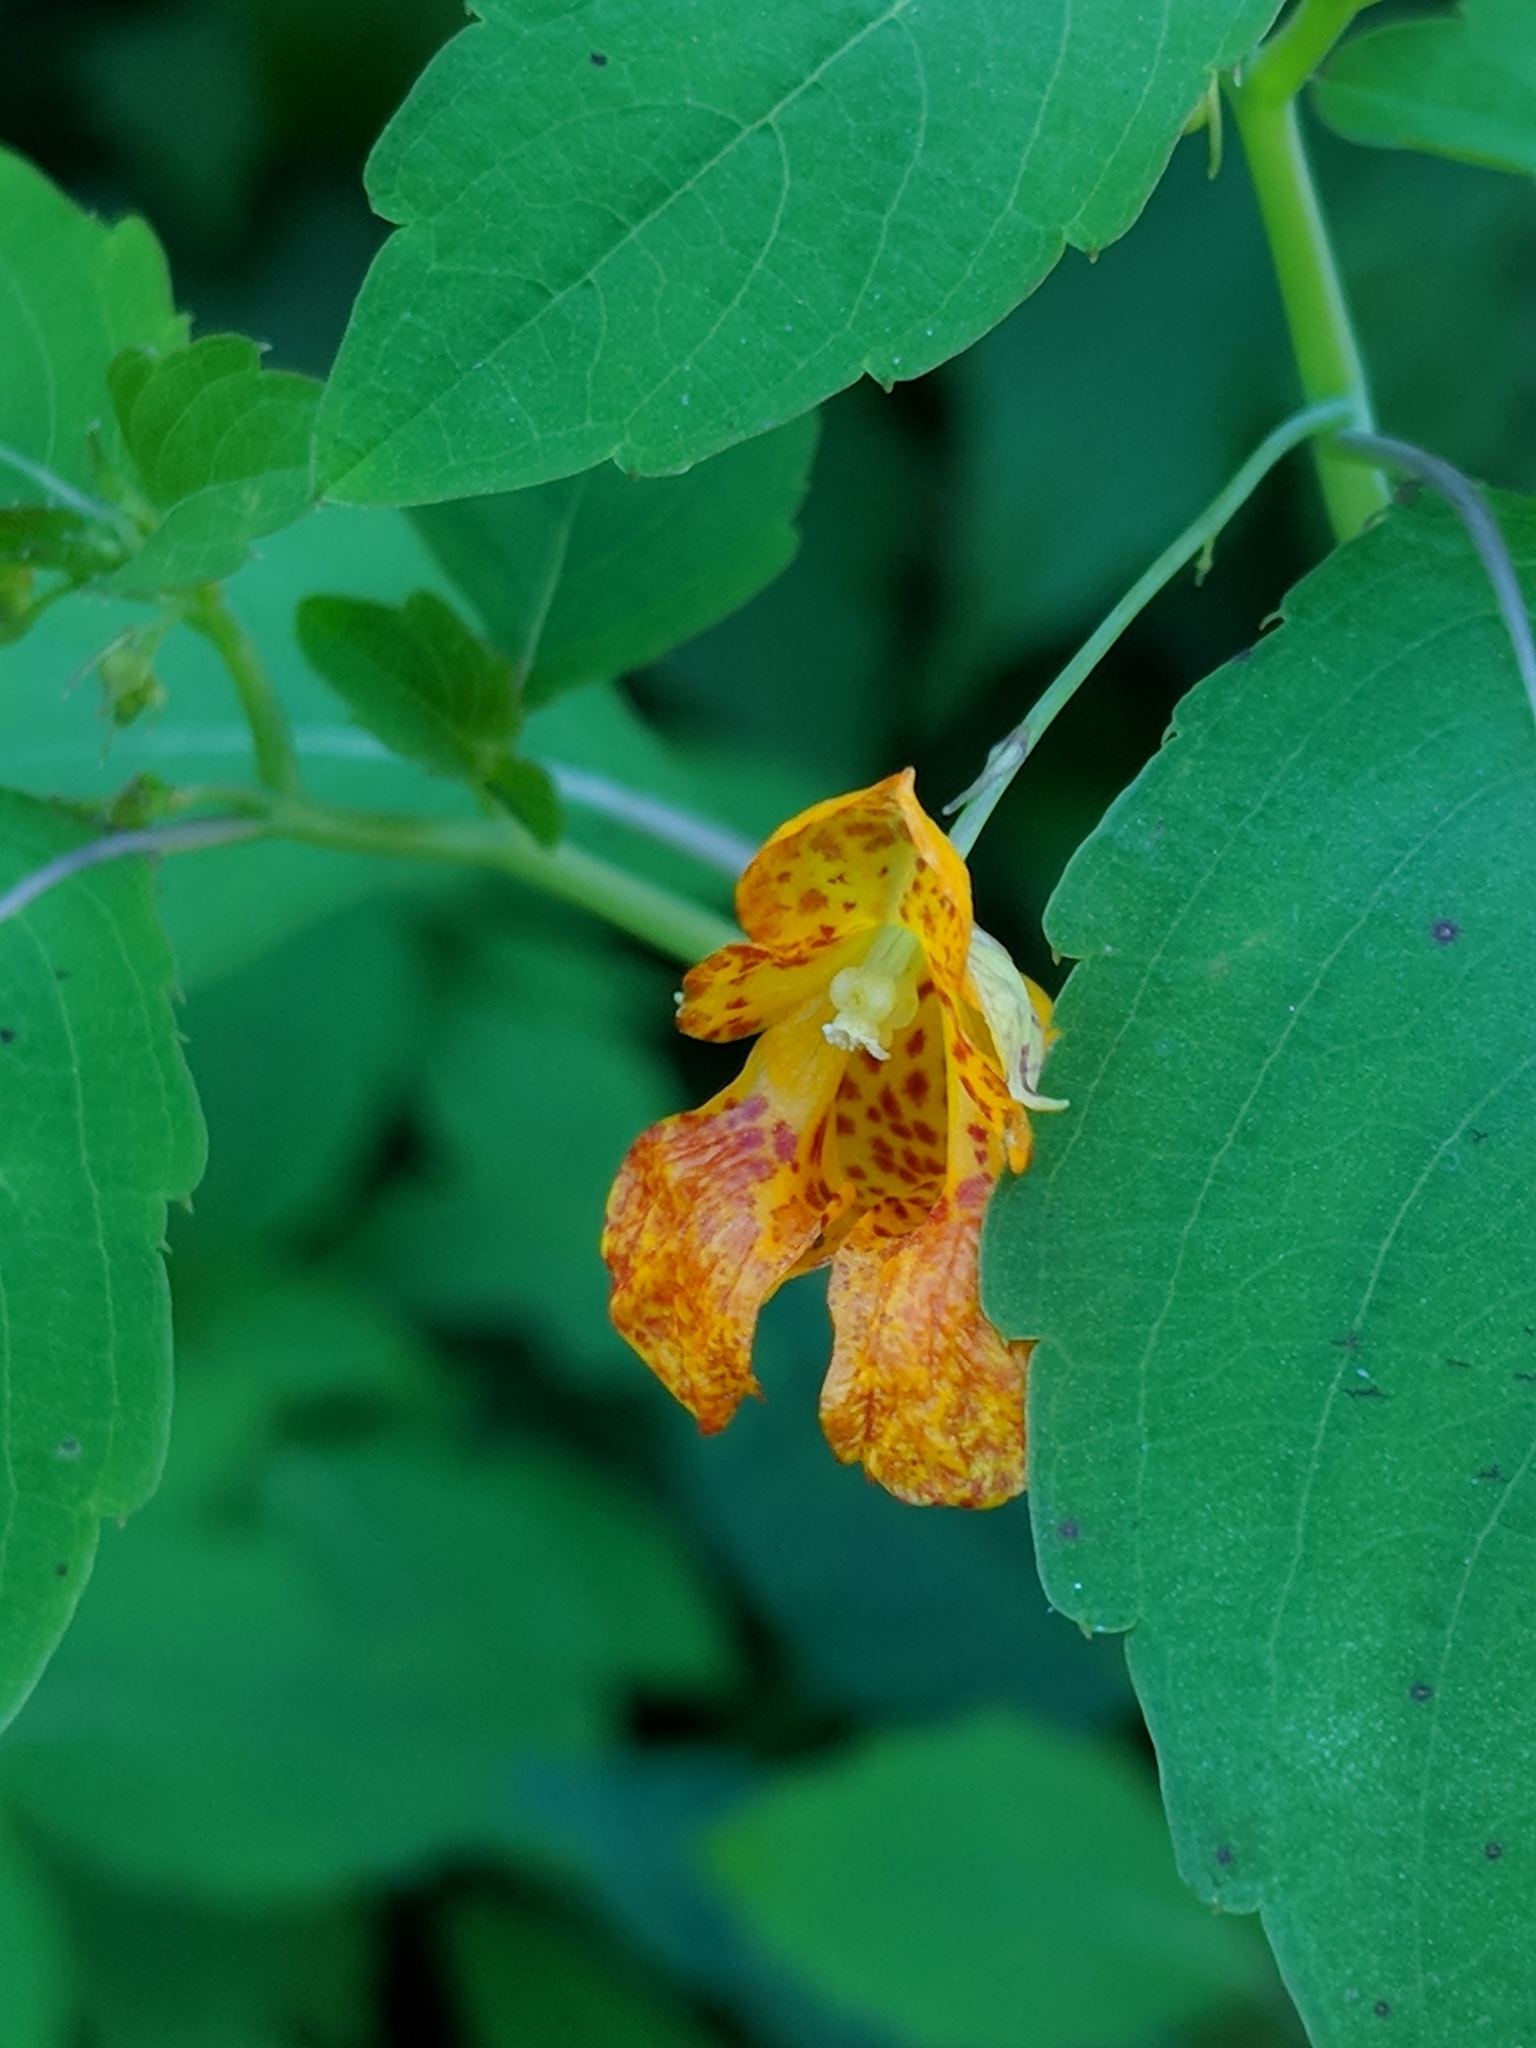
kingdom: Plantae
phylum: Tracheophyta
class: Magnoliopsida
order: Ericales
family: Balsaminaceae
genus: Impatiens
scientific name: Impatiens capensis
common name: Orange balsam
